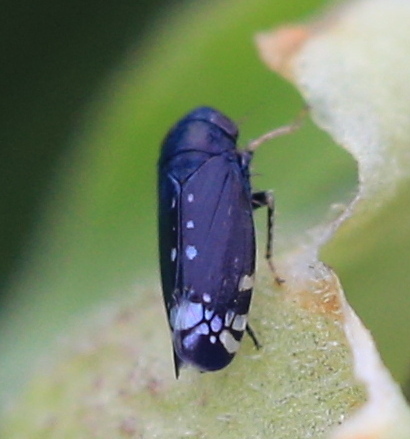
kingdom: Animalia
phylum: Arthropoda
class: Insecta
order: Hemiptera
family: Cicadellidae
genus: Neoaliturus
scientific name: Neoaliturus fenestratus
